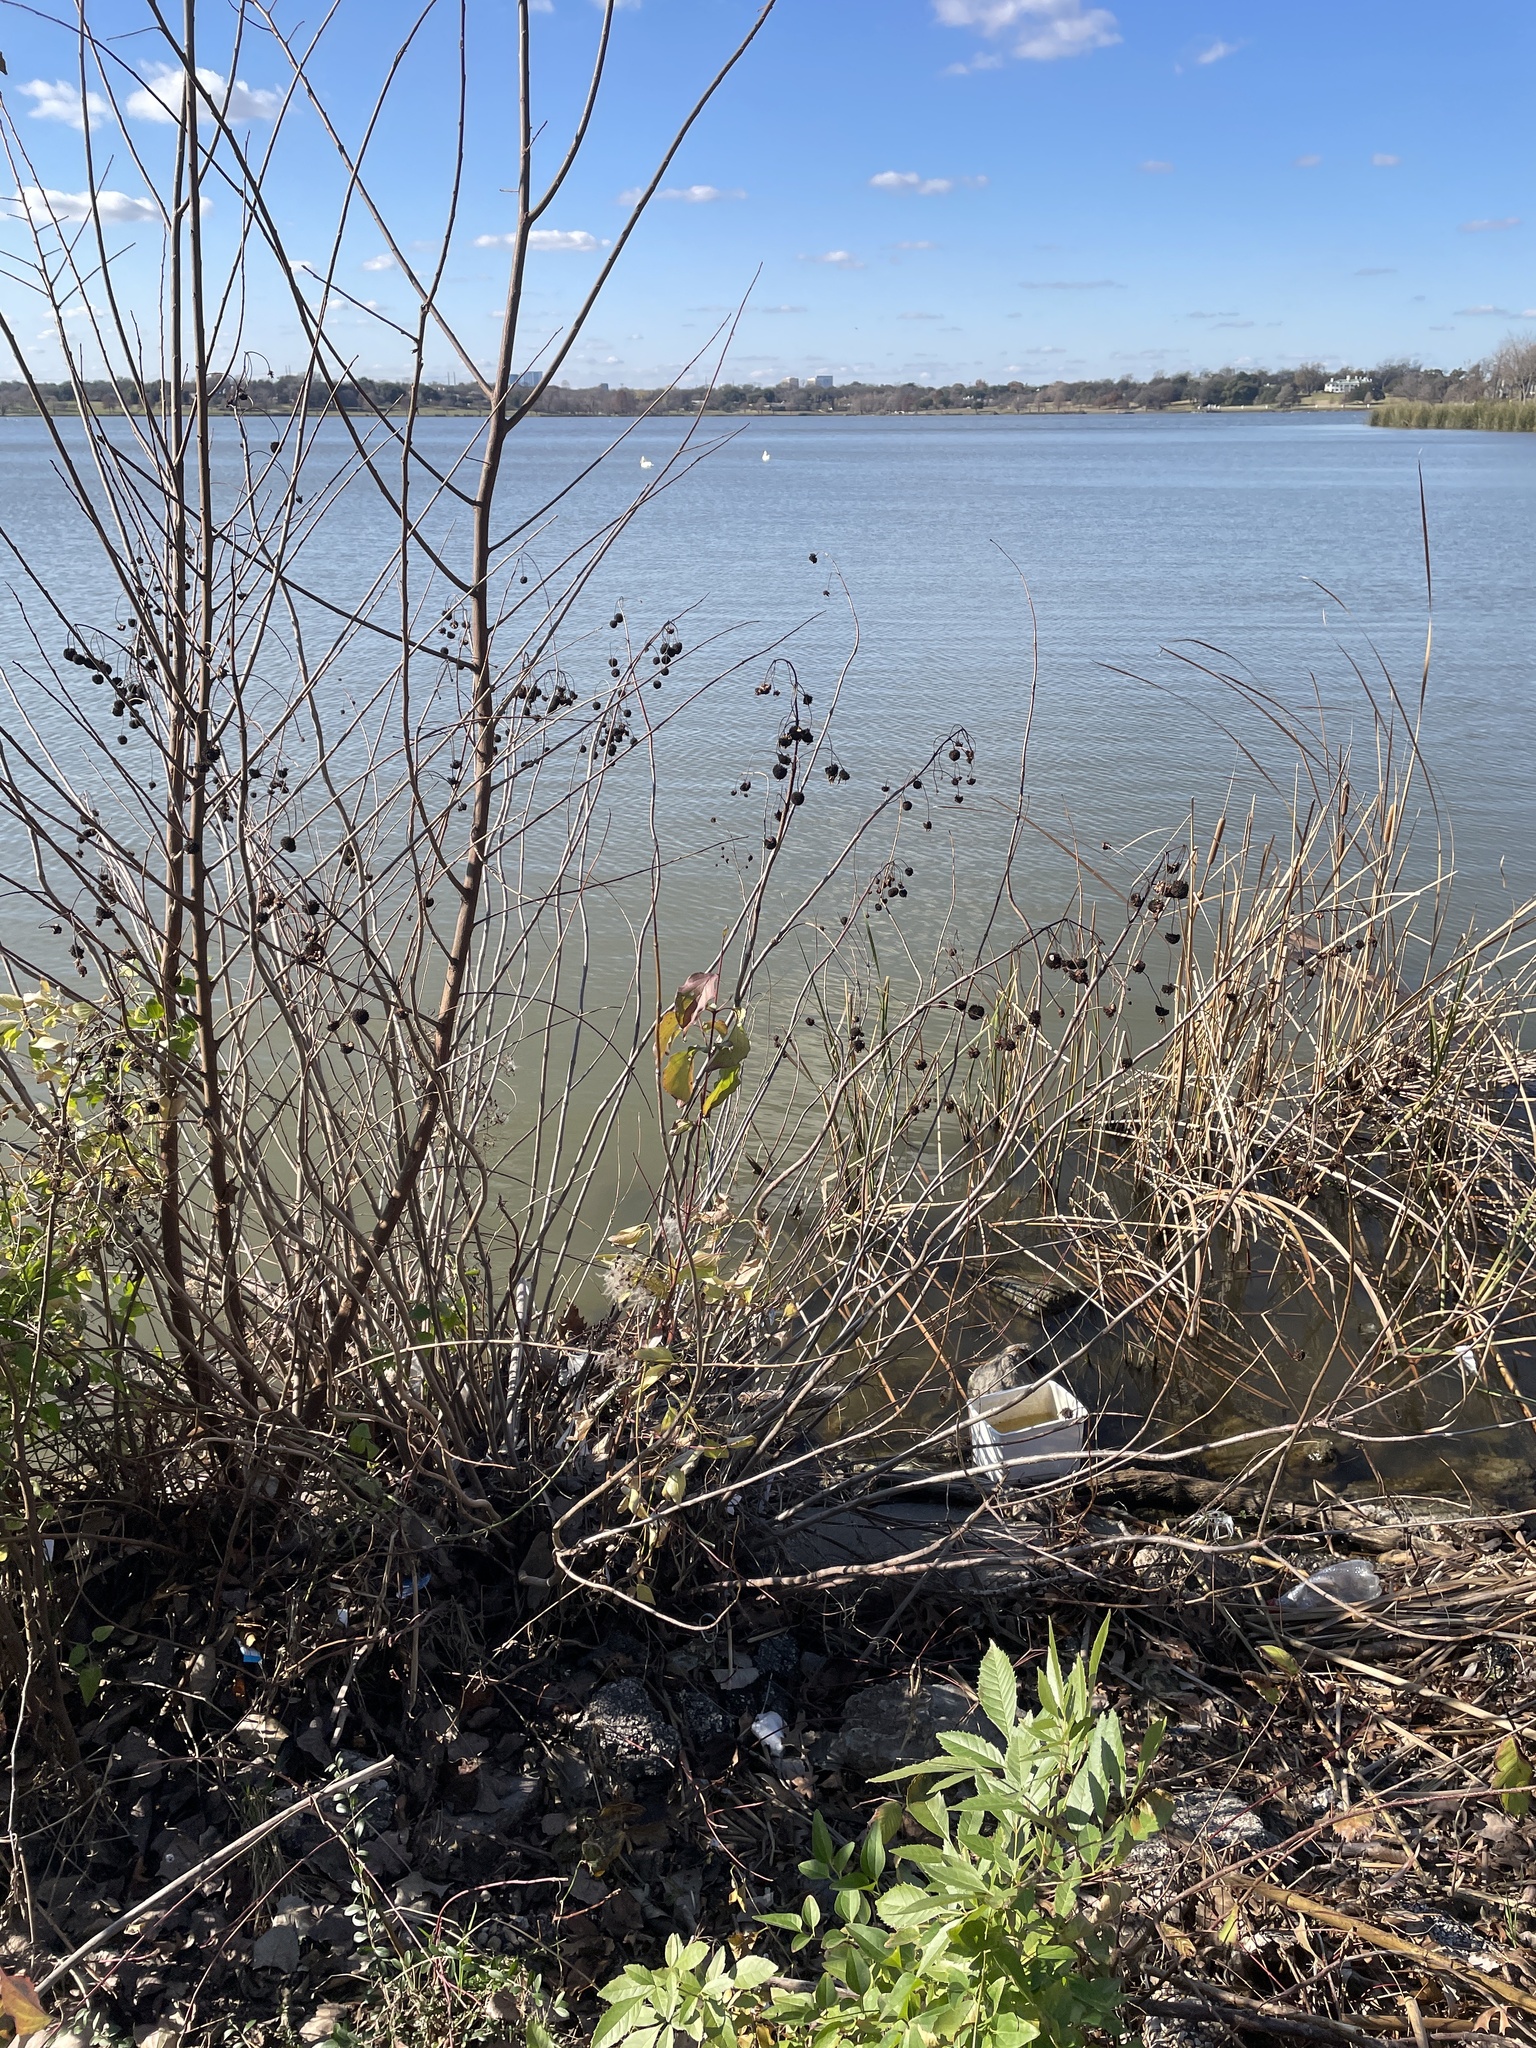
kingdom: Plantae
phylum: Tracheophyta
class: Magnoliopsida
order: Gentianales
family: Rubiaceae
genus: Cephalanthus
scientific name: Cephalanthus occidentalis
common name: Button-willow
